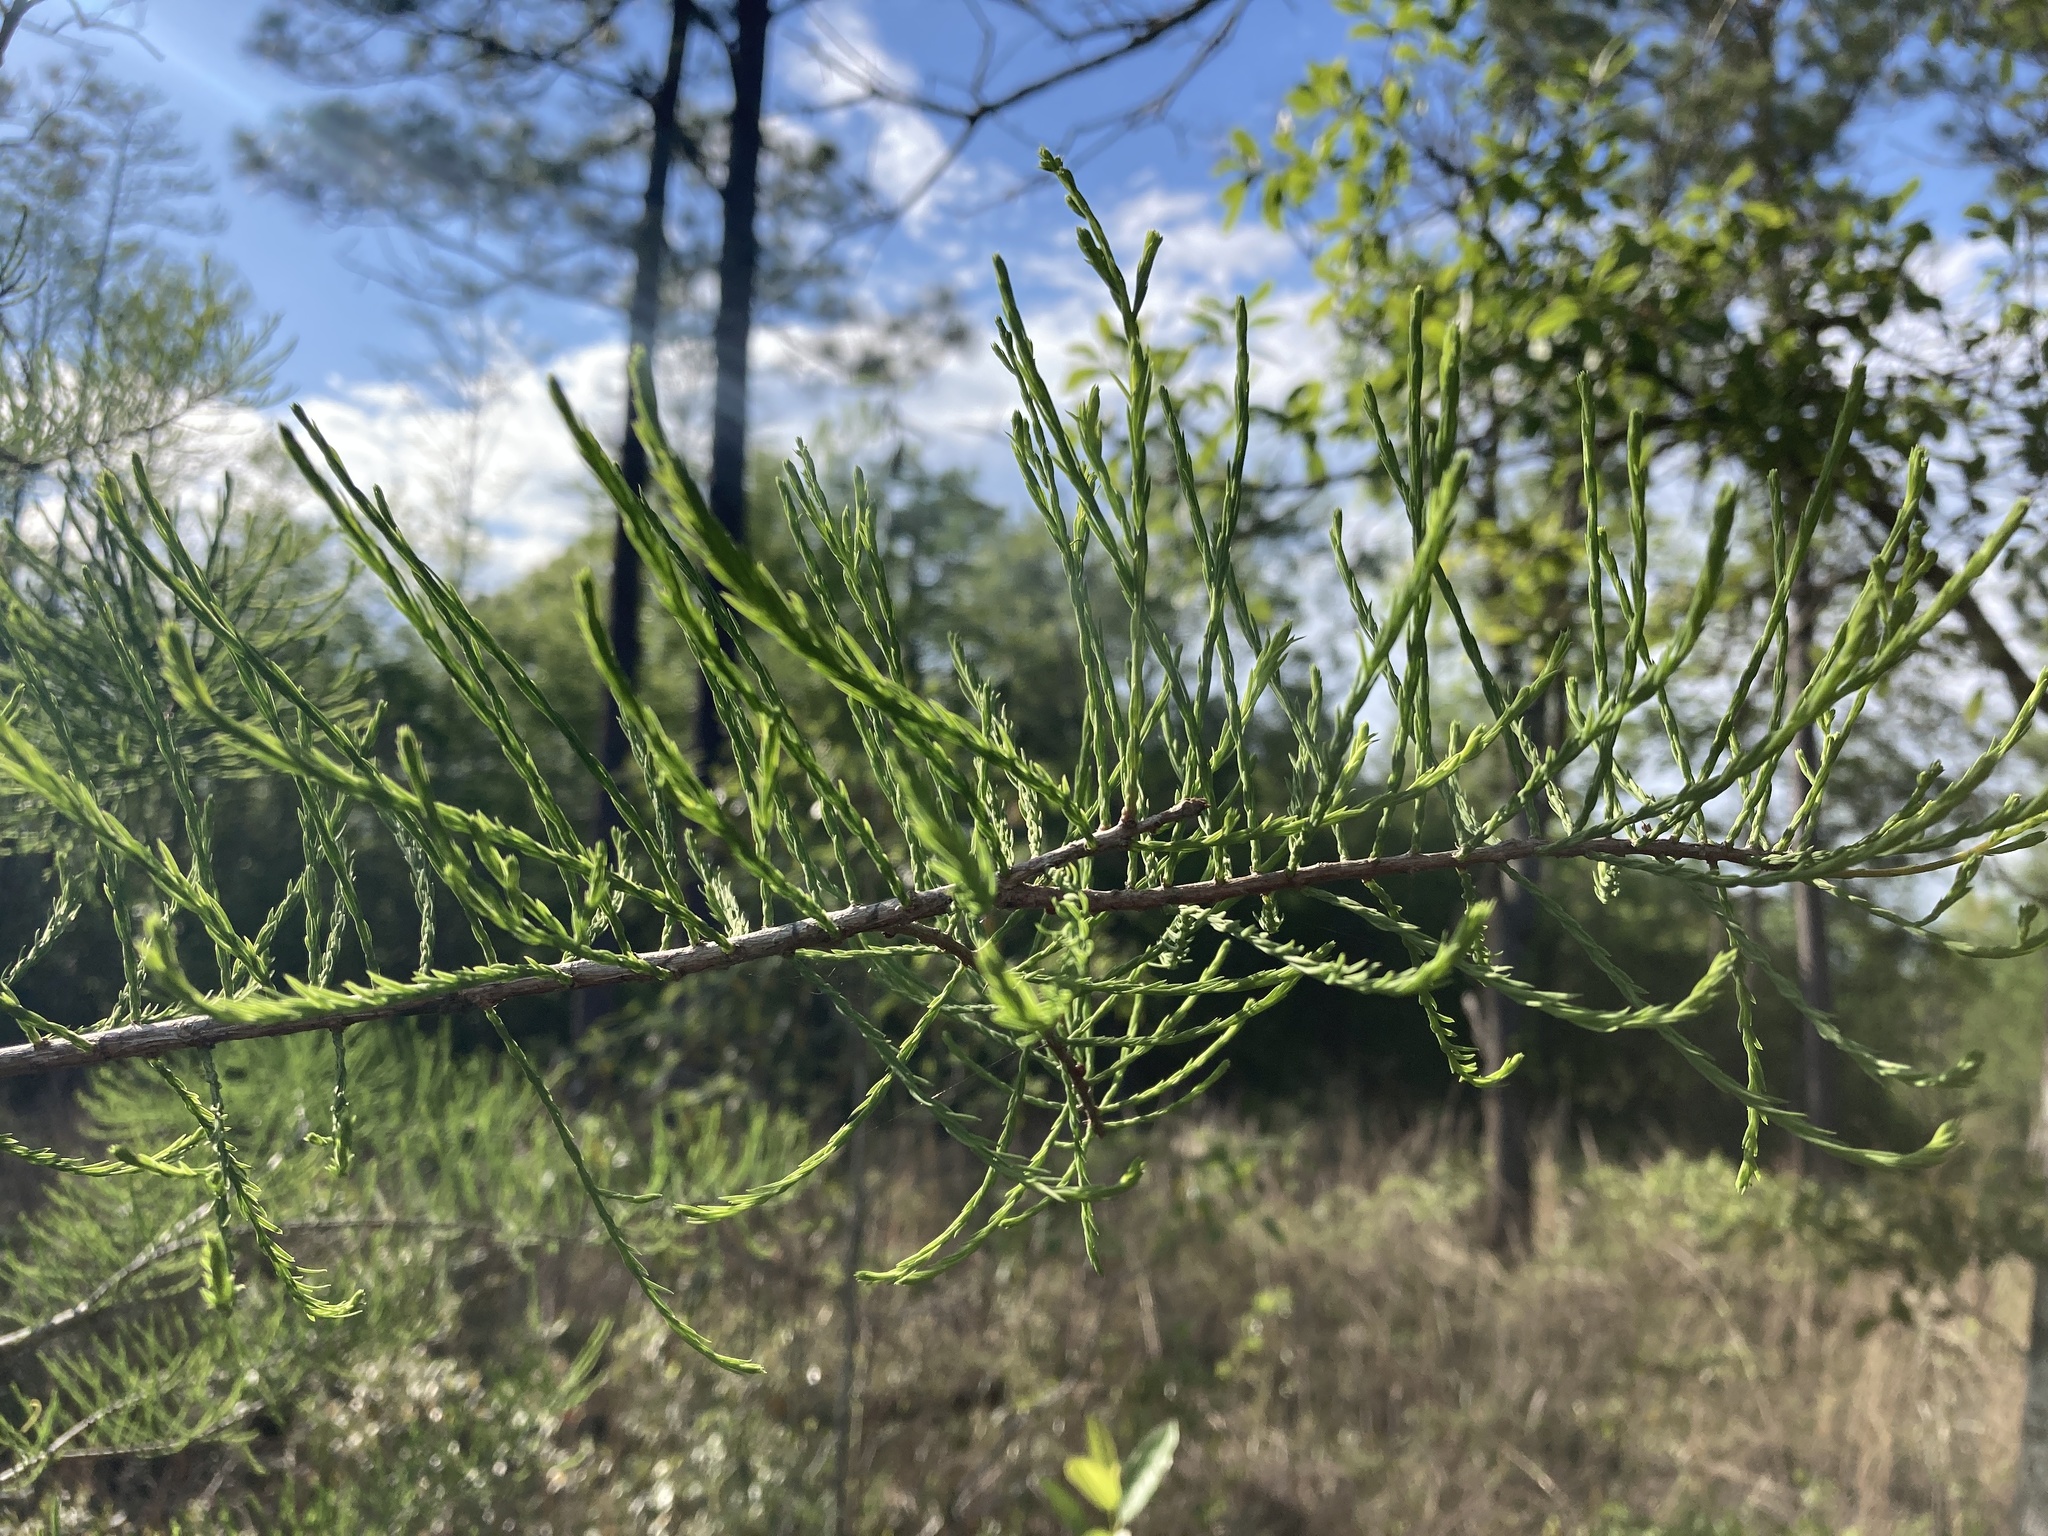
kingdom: Plantae
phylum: Tracheophyta
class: Pinopsida
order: Pinales
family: Cupressaceae
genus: Taxodium
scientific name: Taxodium distichum
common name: Bald cypress
